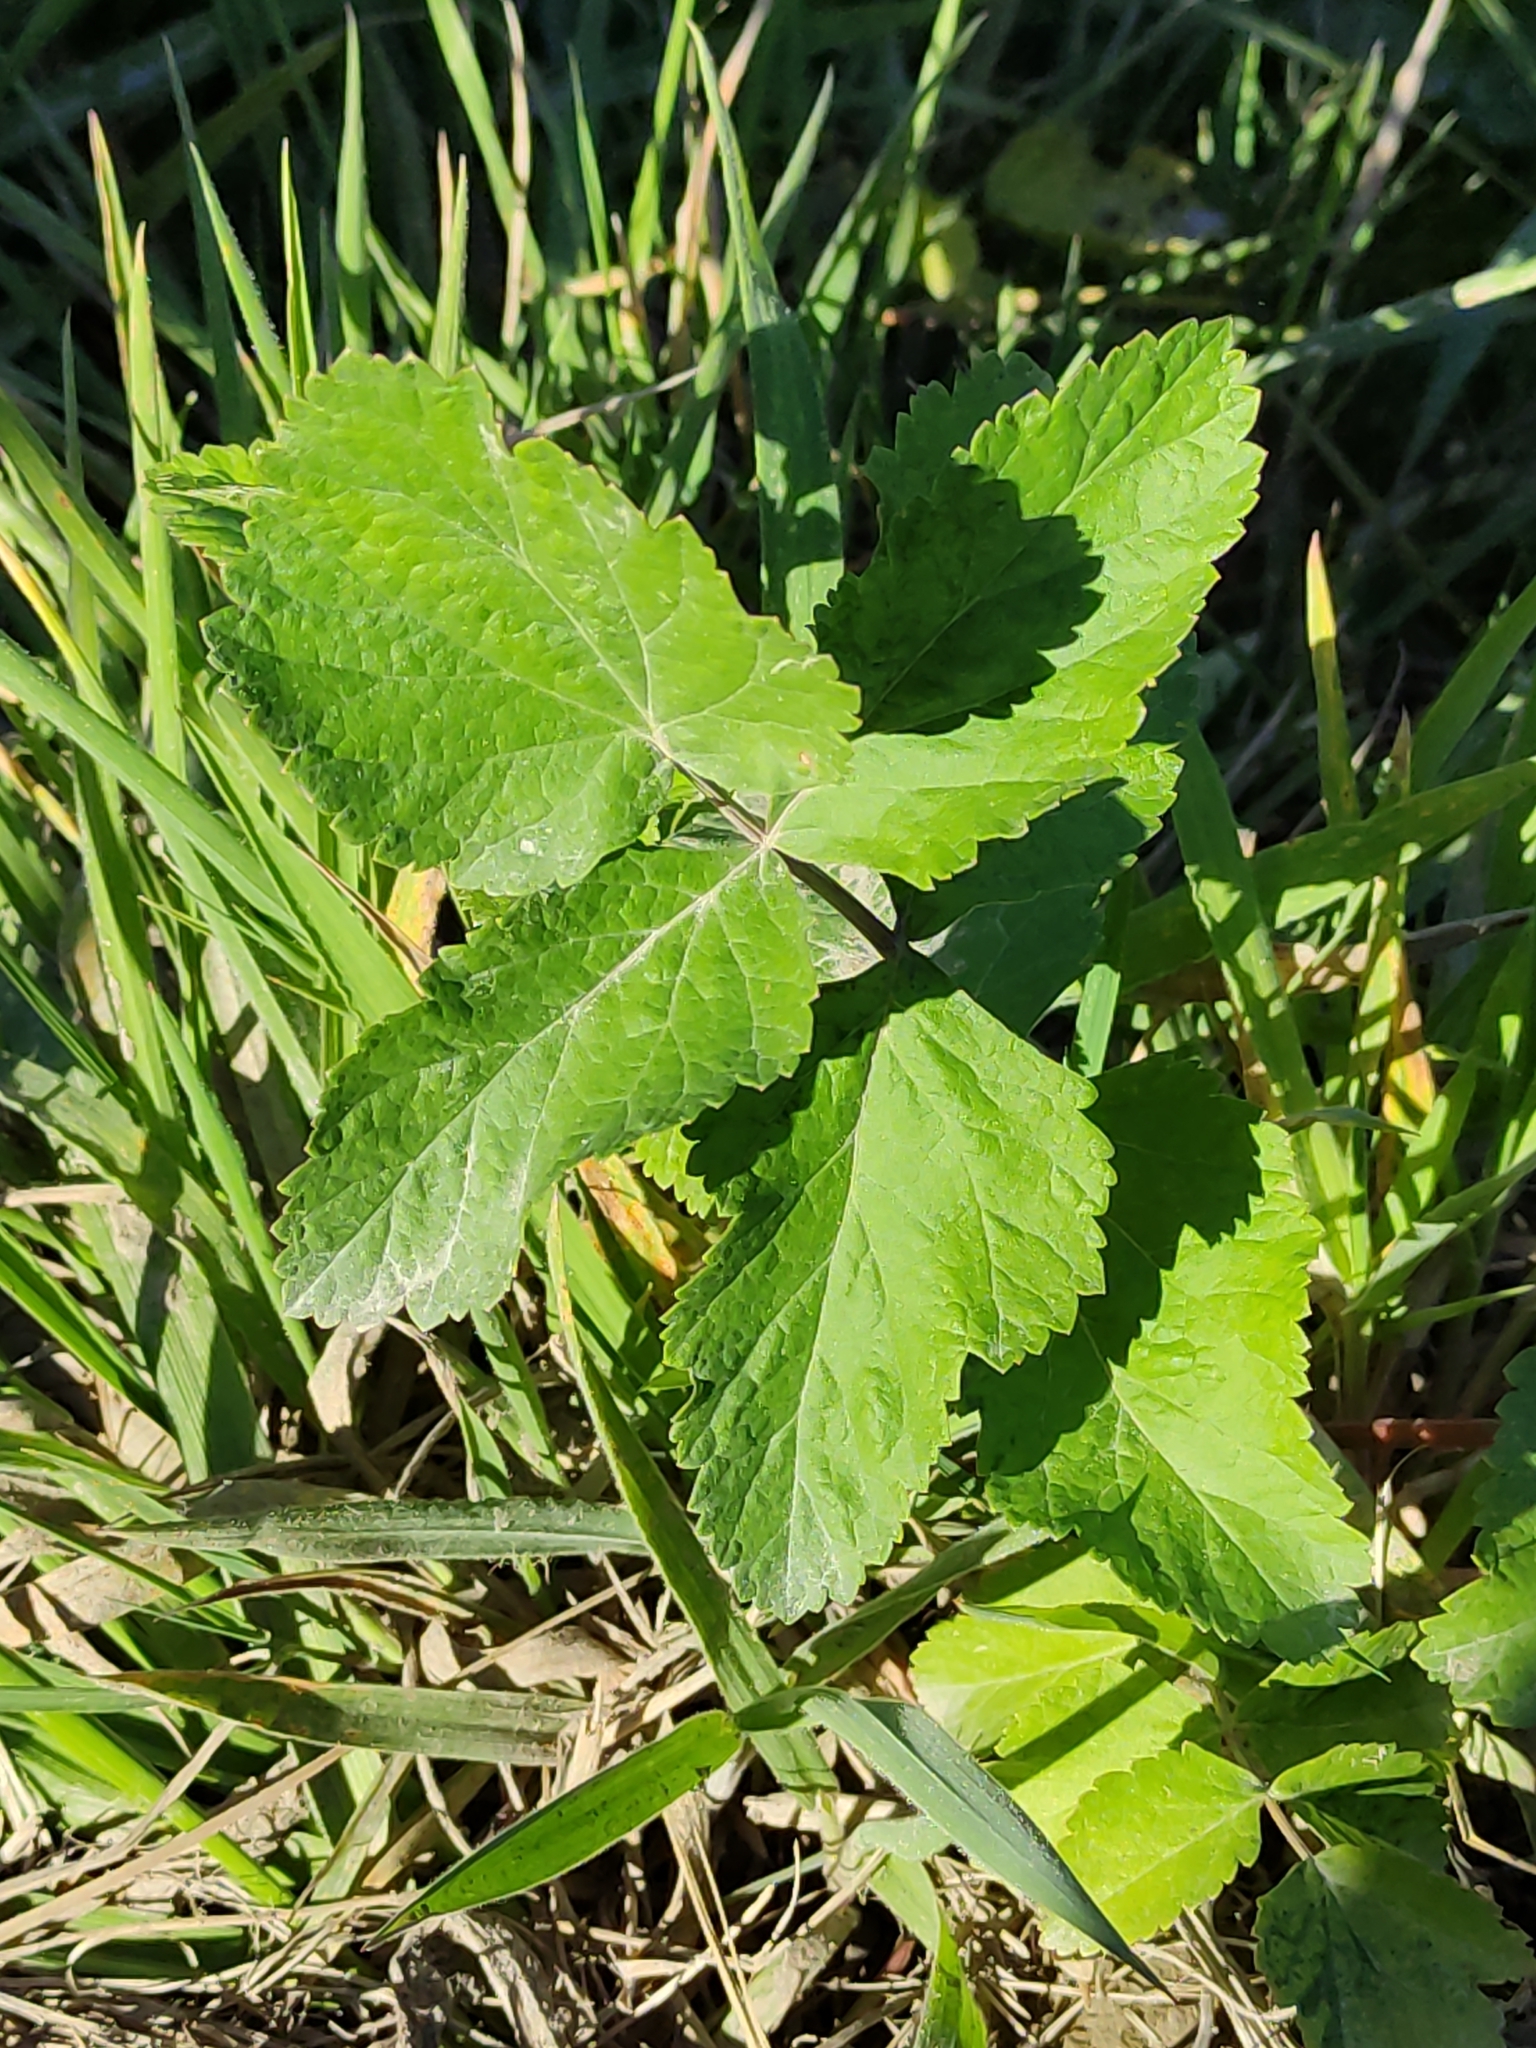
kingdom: Plantae
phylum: Tracheophyta
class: Magnoliopsida
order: Apiales
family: Apiaceae
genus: Pastinaca
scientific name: Pastinaca sativa
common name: Wild parsnip
